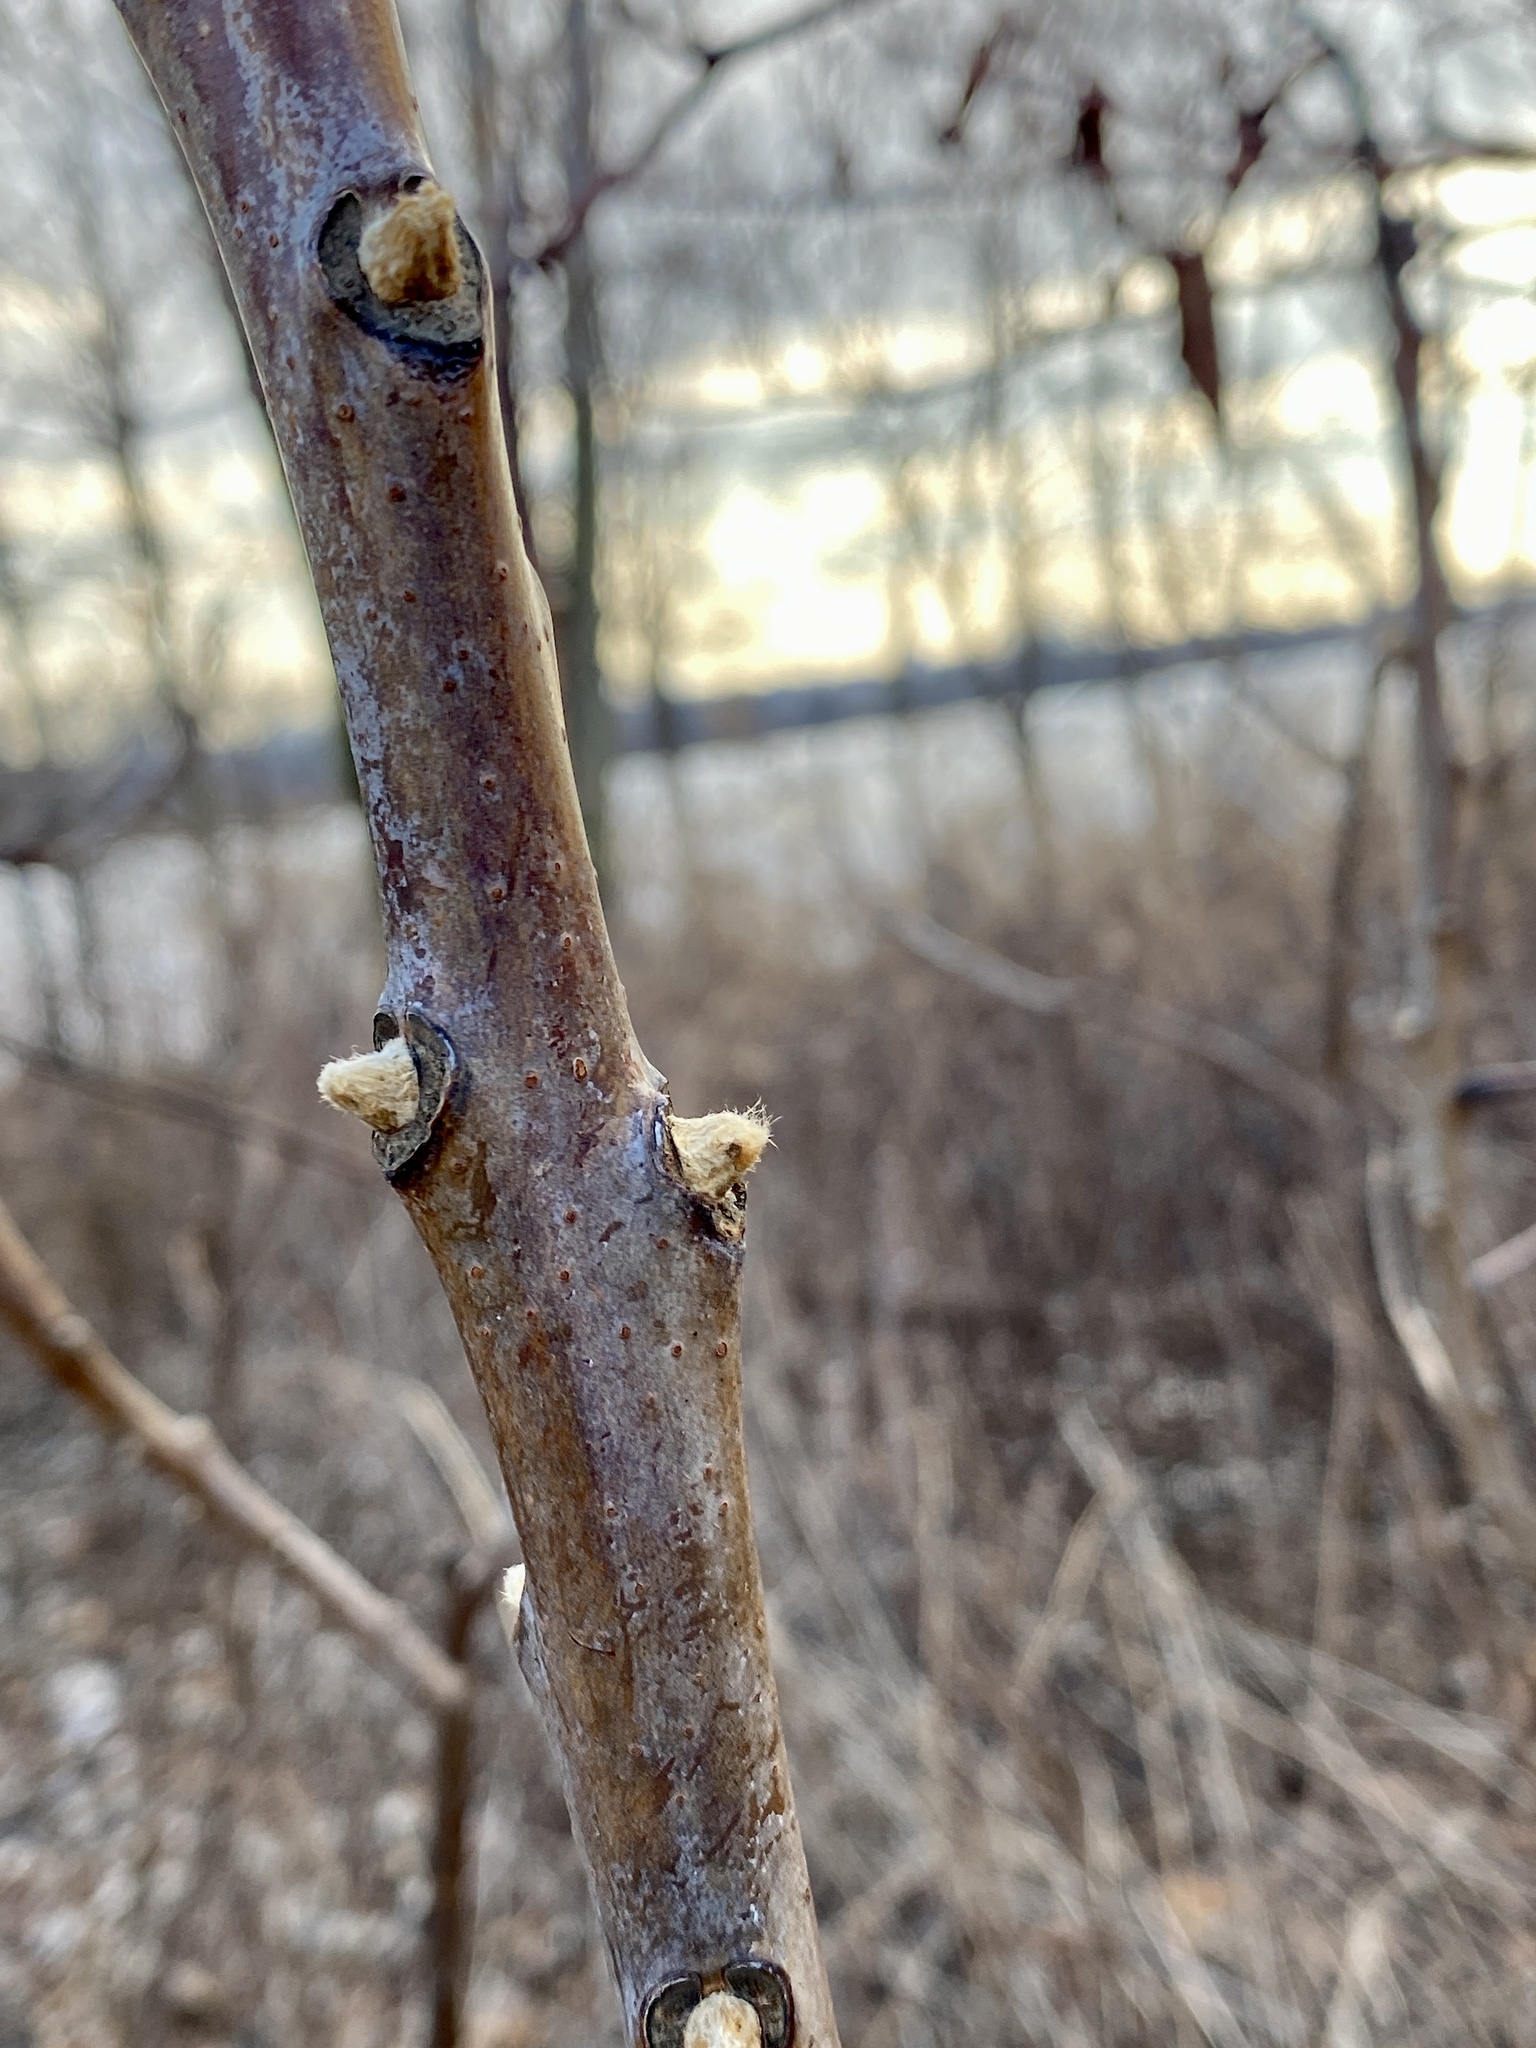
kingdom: Plantae
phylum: Tracheophyta
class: Magnoliopsida
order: Sapindales
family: Anacardiaceae
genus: Rhus
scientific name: Rhus glabra
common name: Scarlet sumac
